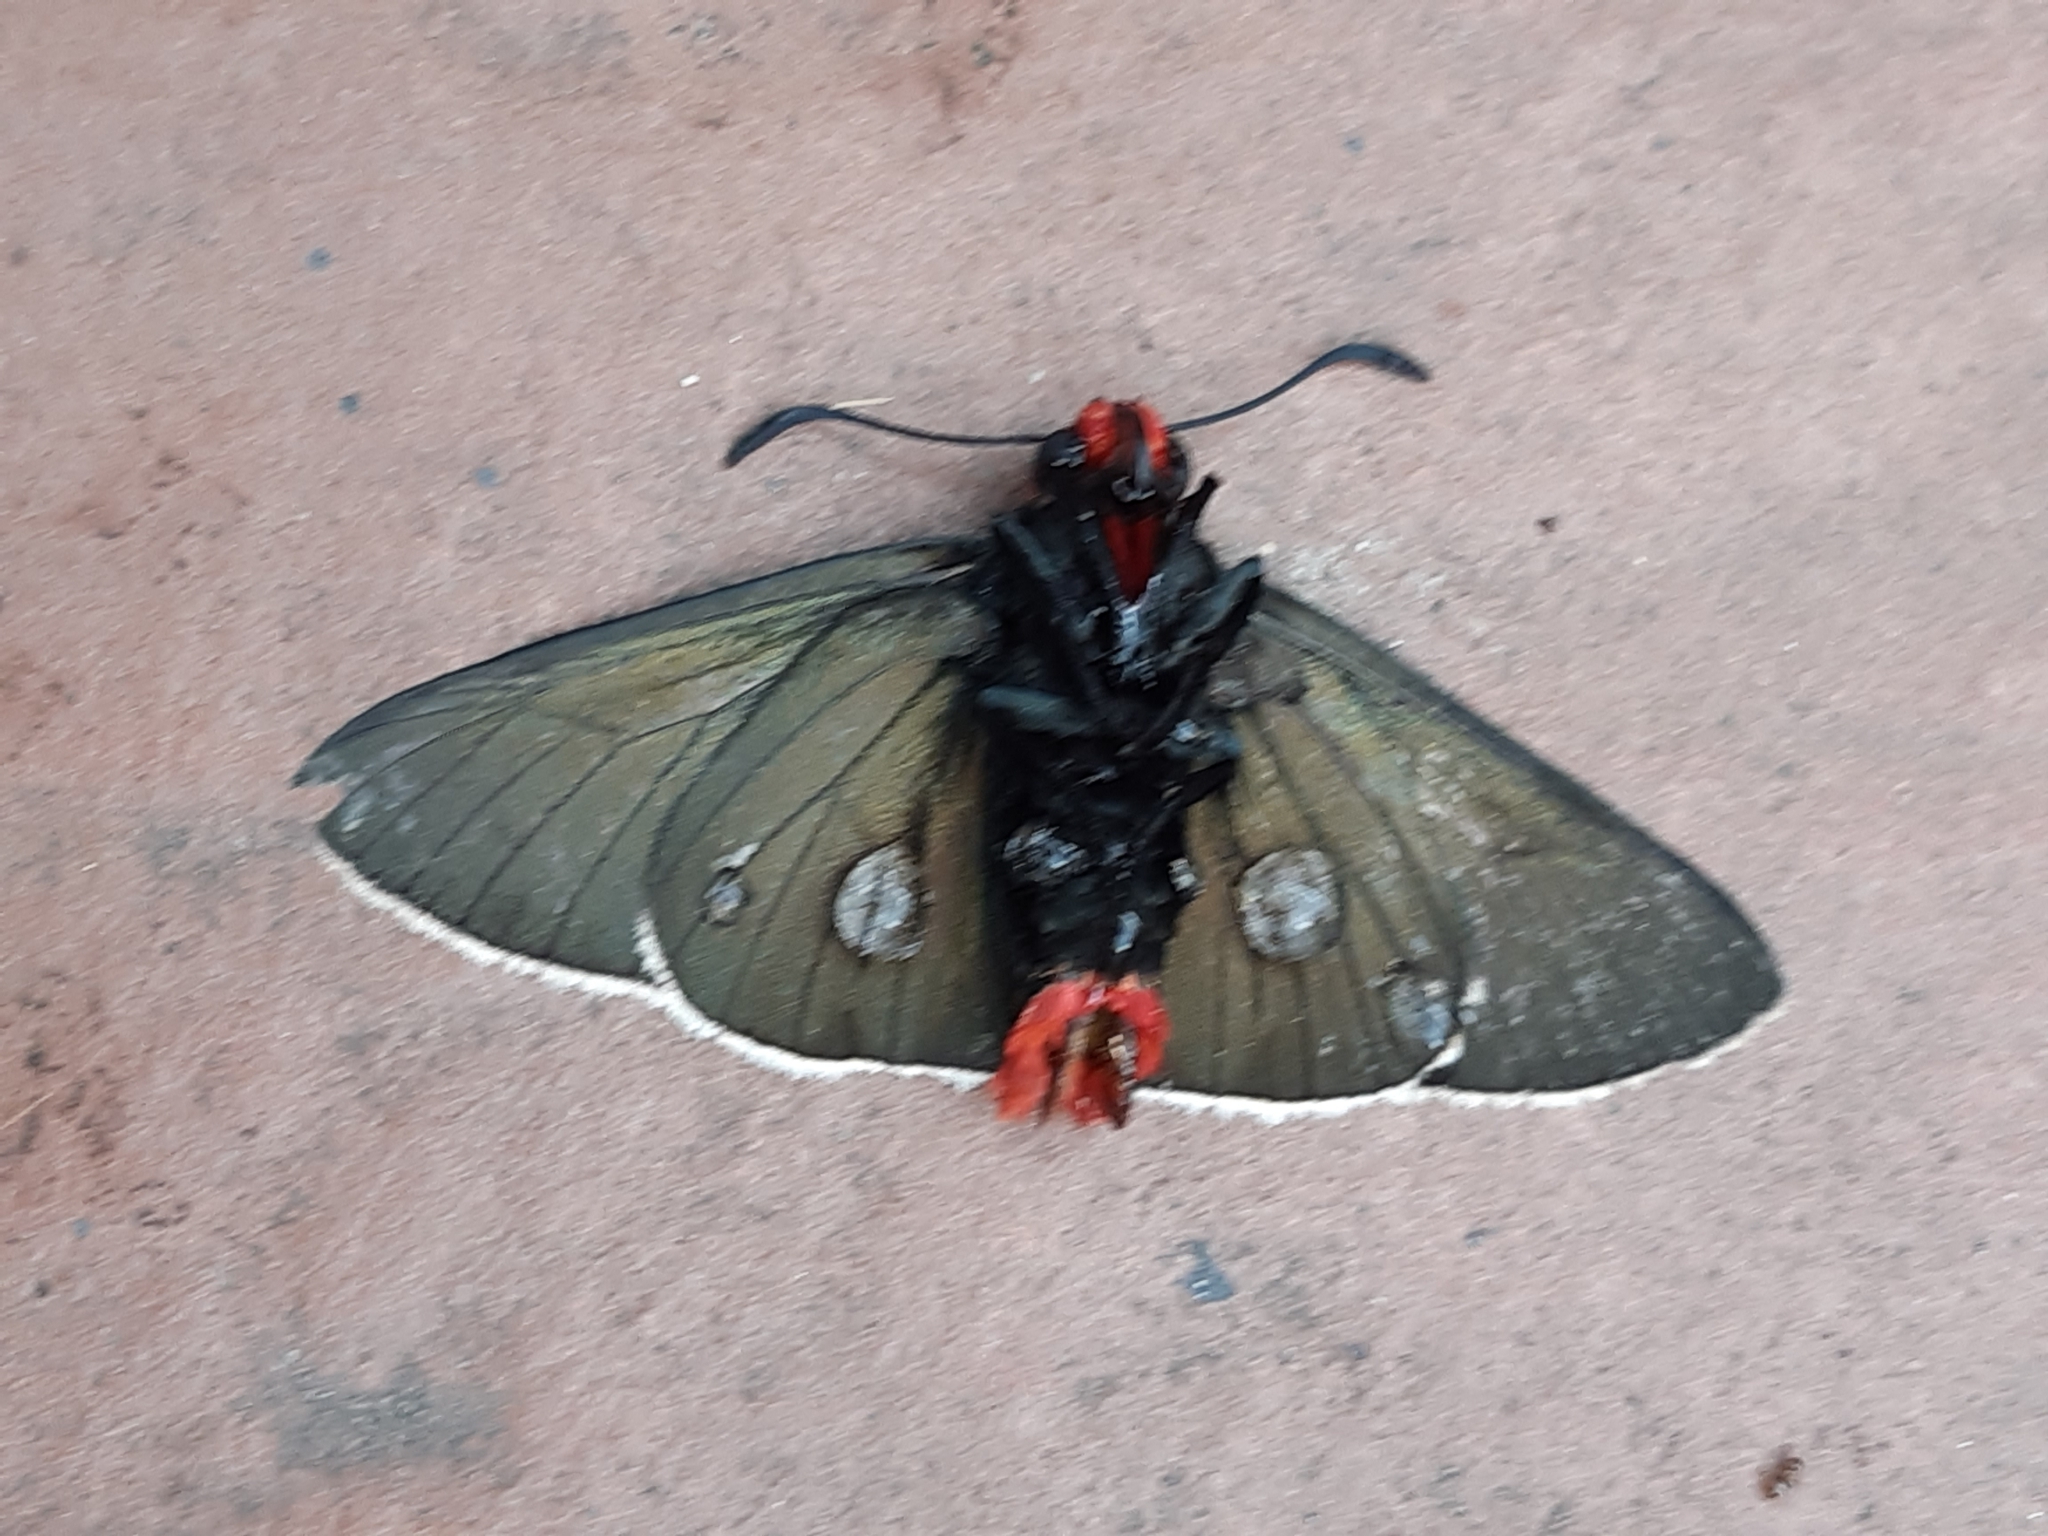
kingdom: Animalia
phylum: Arthropoda
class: Insecta
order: Lepidoptera
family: Hesperiidae
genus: Pyrrhopyge
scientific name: Pyrrhopyge charybdis
